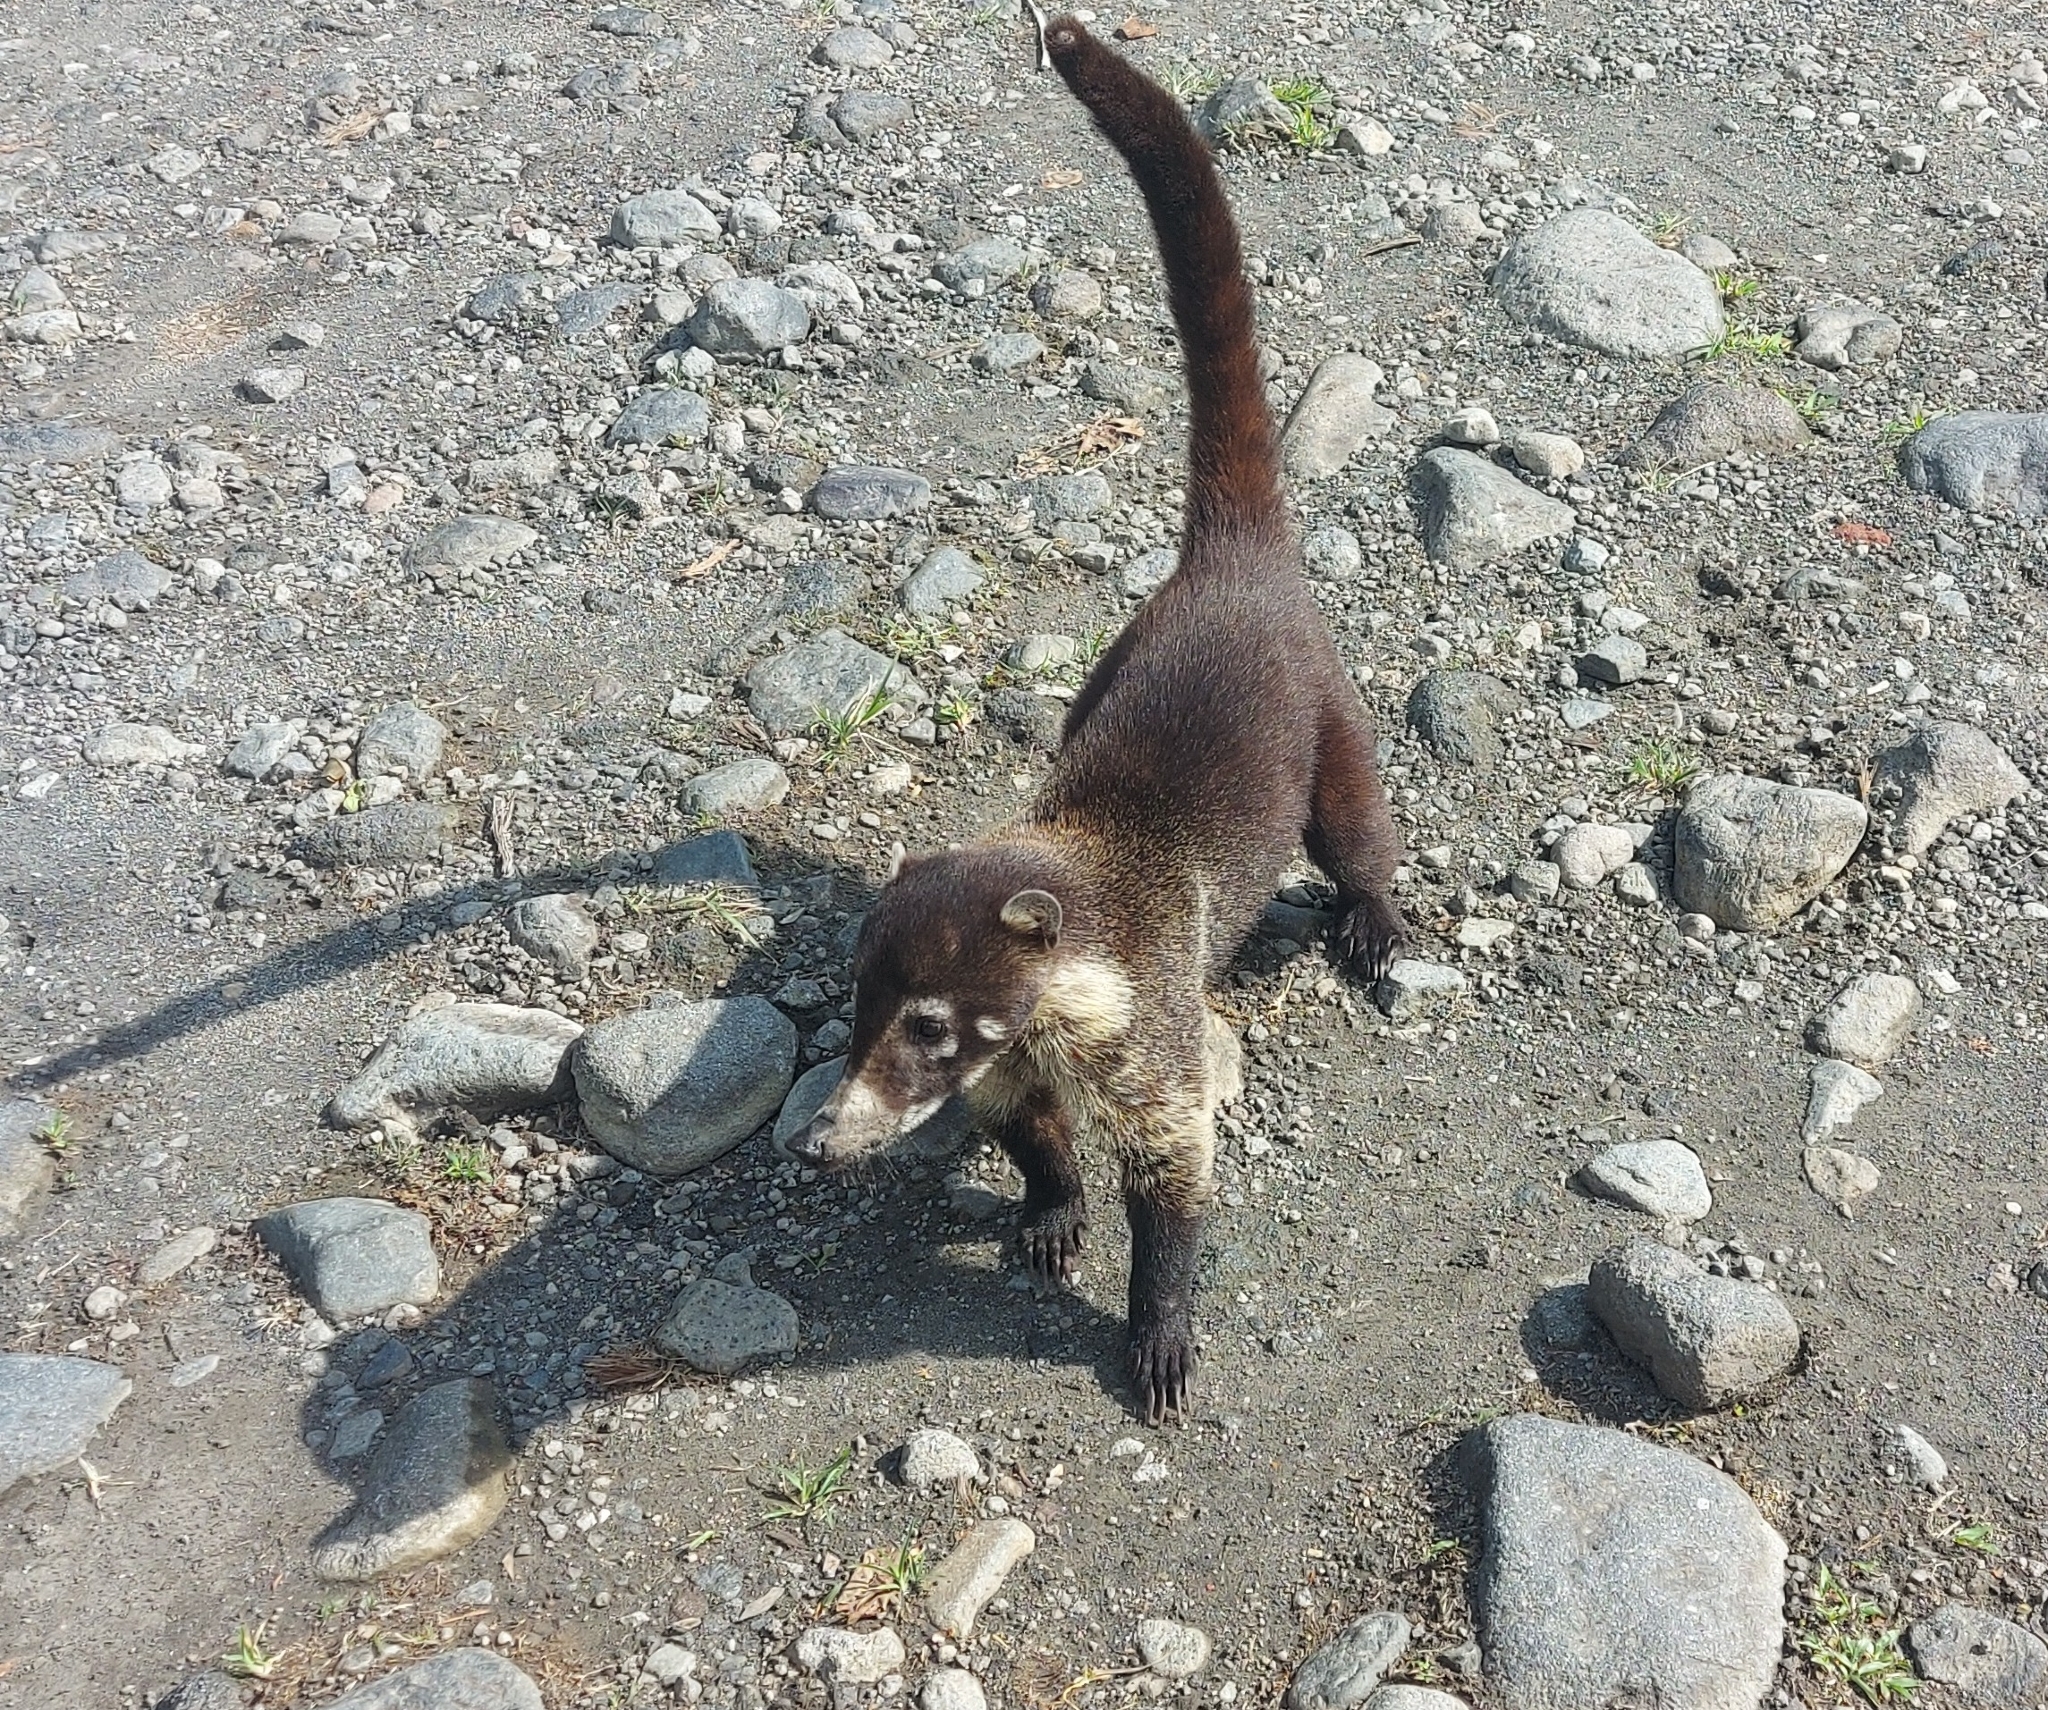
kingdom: Animalia
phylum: Chordata
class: Mammalia
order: Carnivora
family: Procyonidae
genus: Nasua
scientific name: Nasua narica
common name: White-nosed coati
